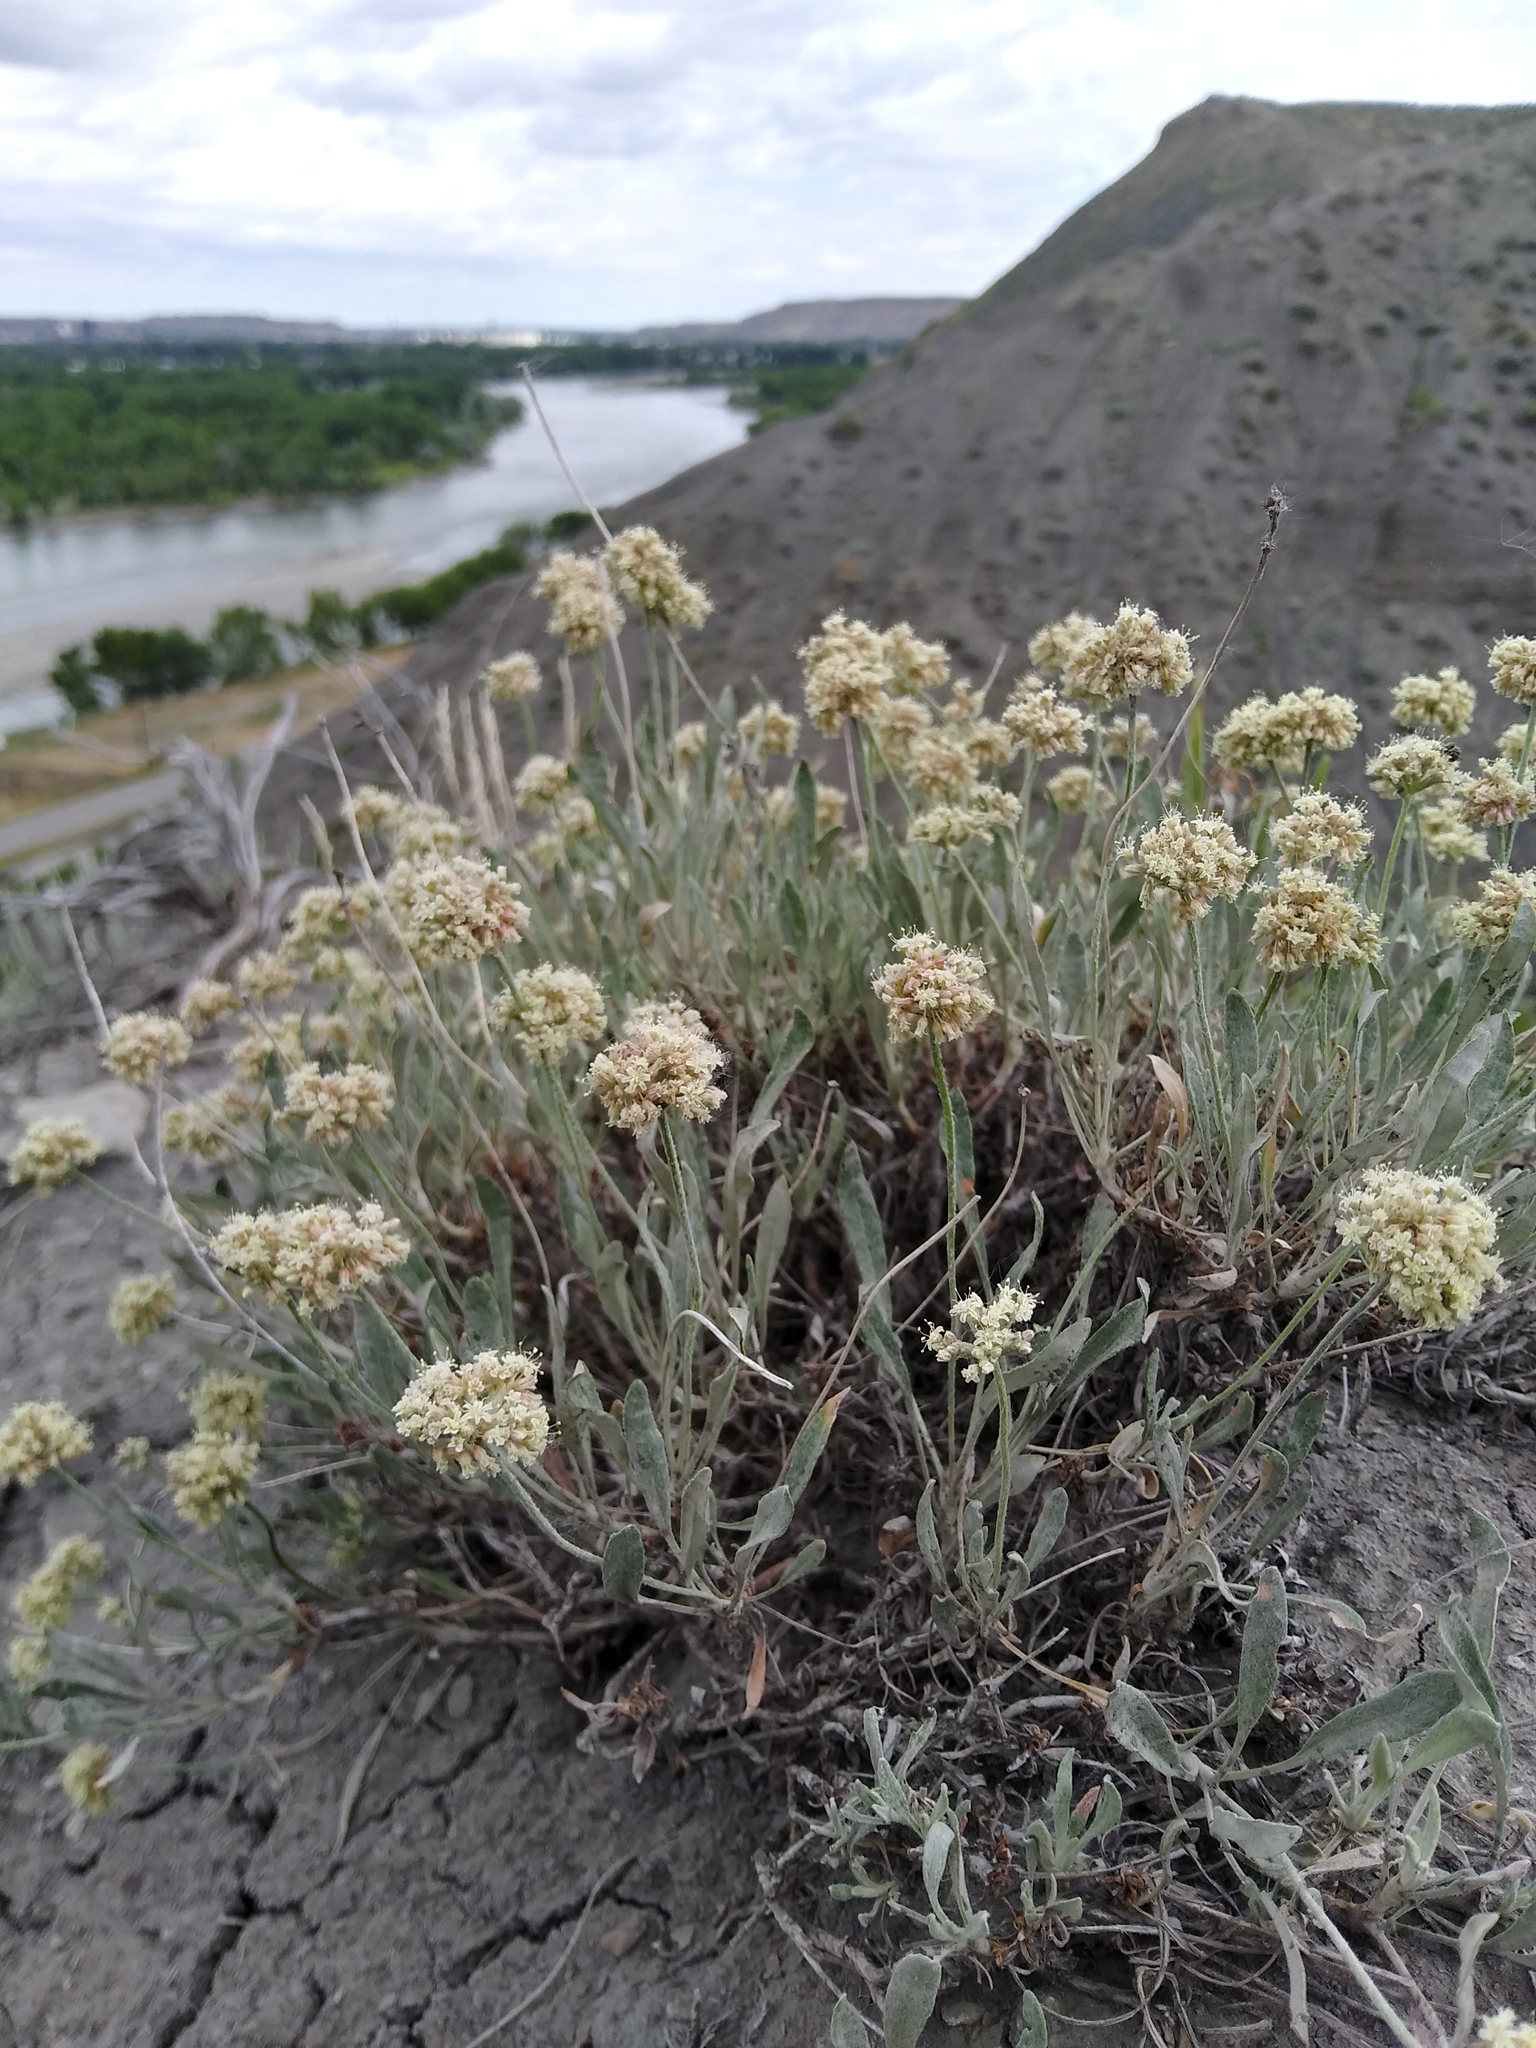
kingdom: Plantae
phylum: Tracheophyta
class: Magnoliopsida
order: Caryophyllales
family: Polygonaceae
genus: Eriogonum
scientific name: Eriogonum pauciflorum
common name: Few-flower wild buckwheat
